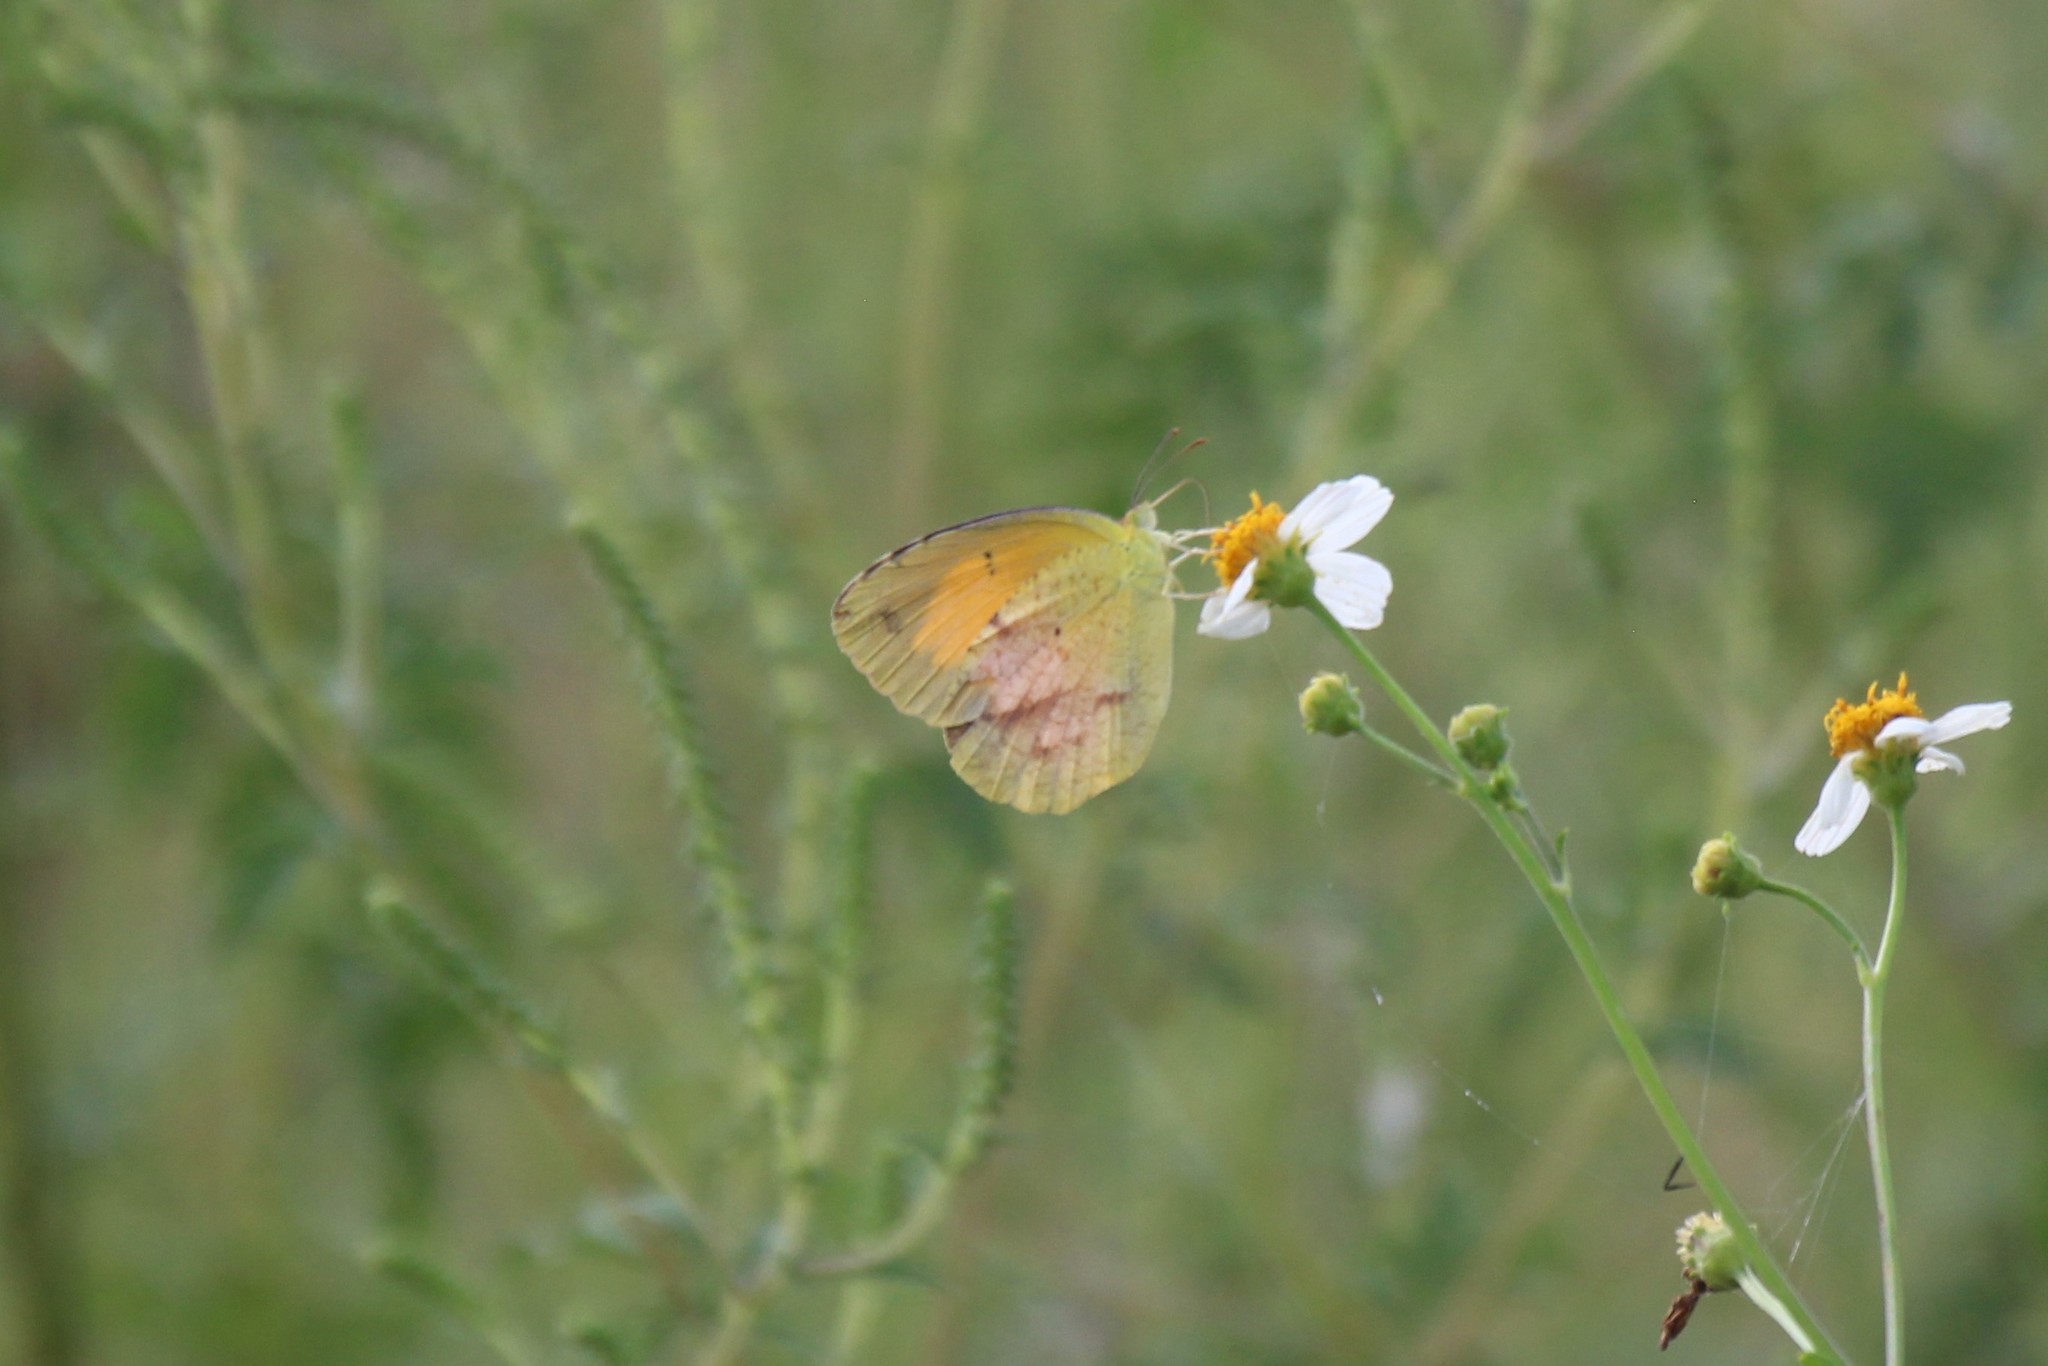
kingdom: Animalia
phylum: Arthropoda
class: Insecta
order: Lepidoptera
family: Pieridae
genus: Abaeis
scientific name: Abaeis nicippe
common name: Sleepy orange
